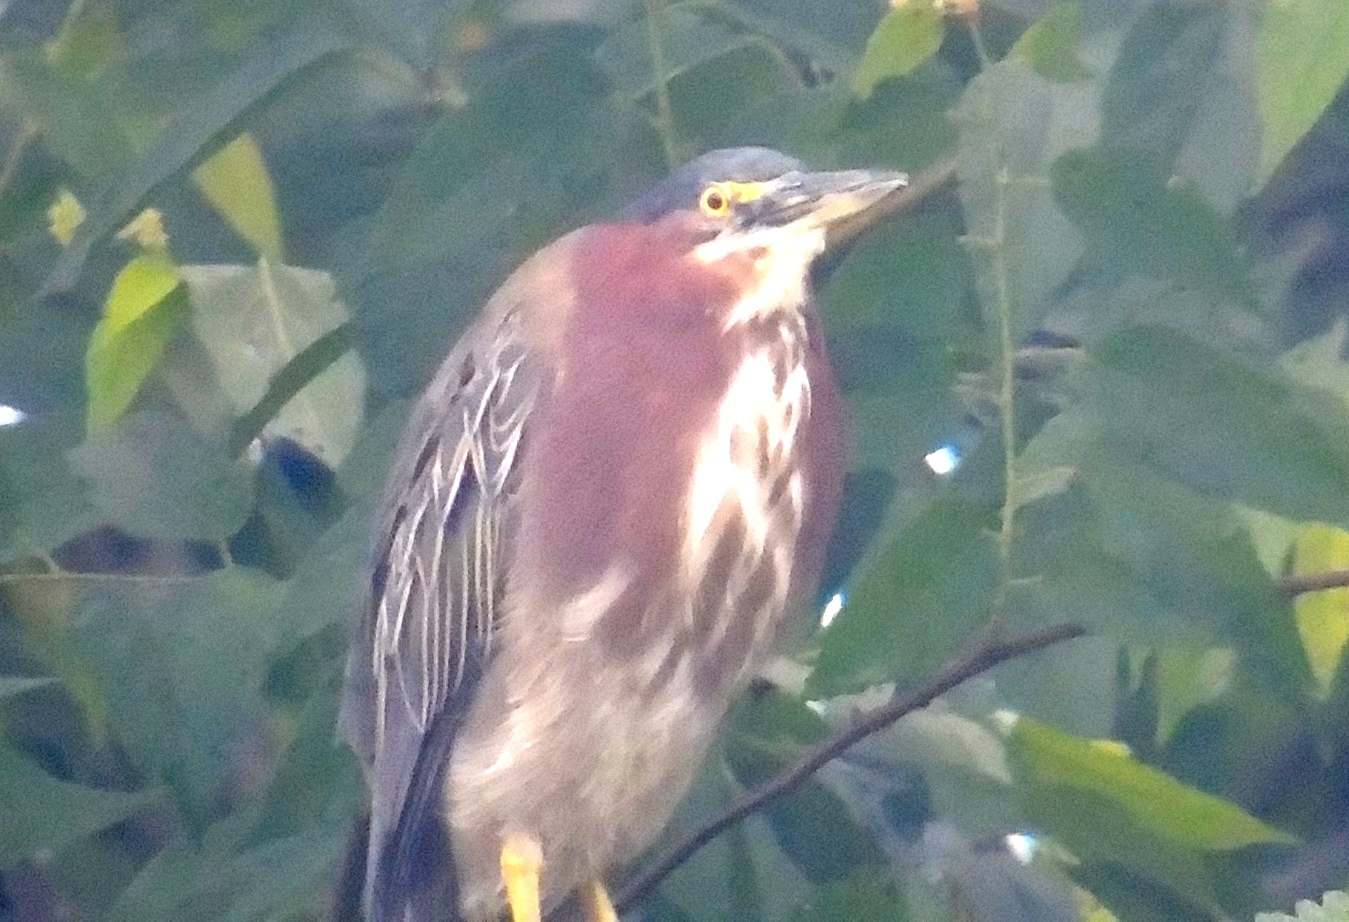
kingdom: Animalia
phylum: Chordata
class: Aves
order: Pelecaniformes
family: Ardeidae
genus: Butorides
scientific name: Butorides virescens
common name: Green heron
